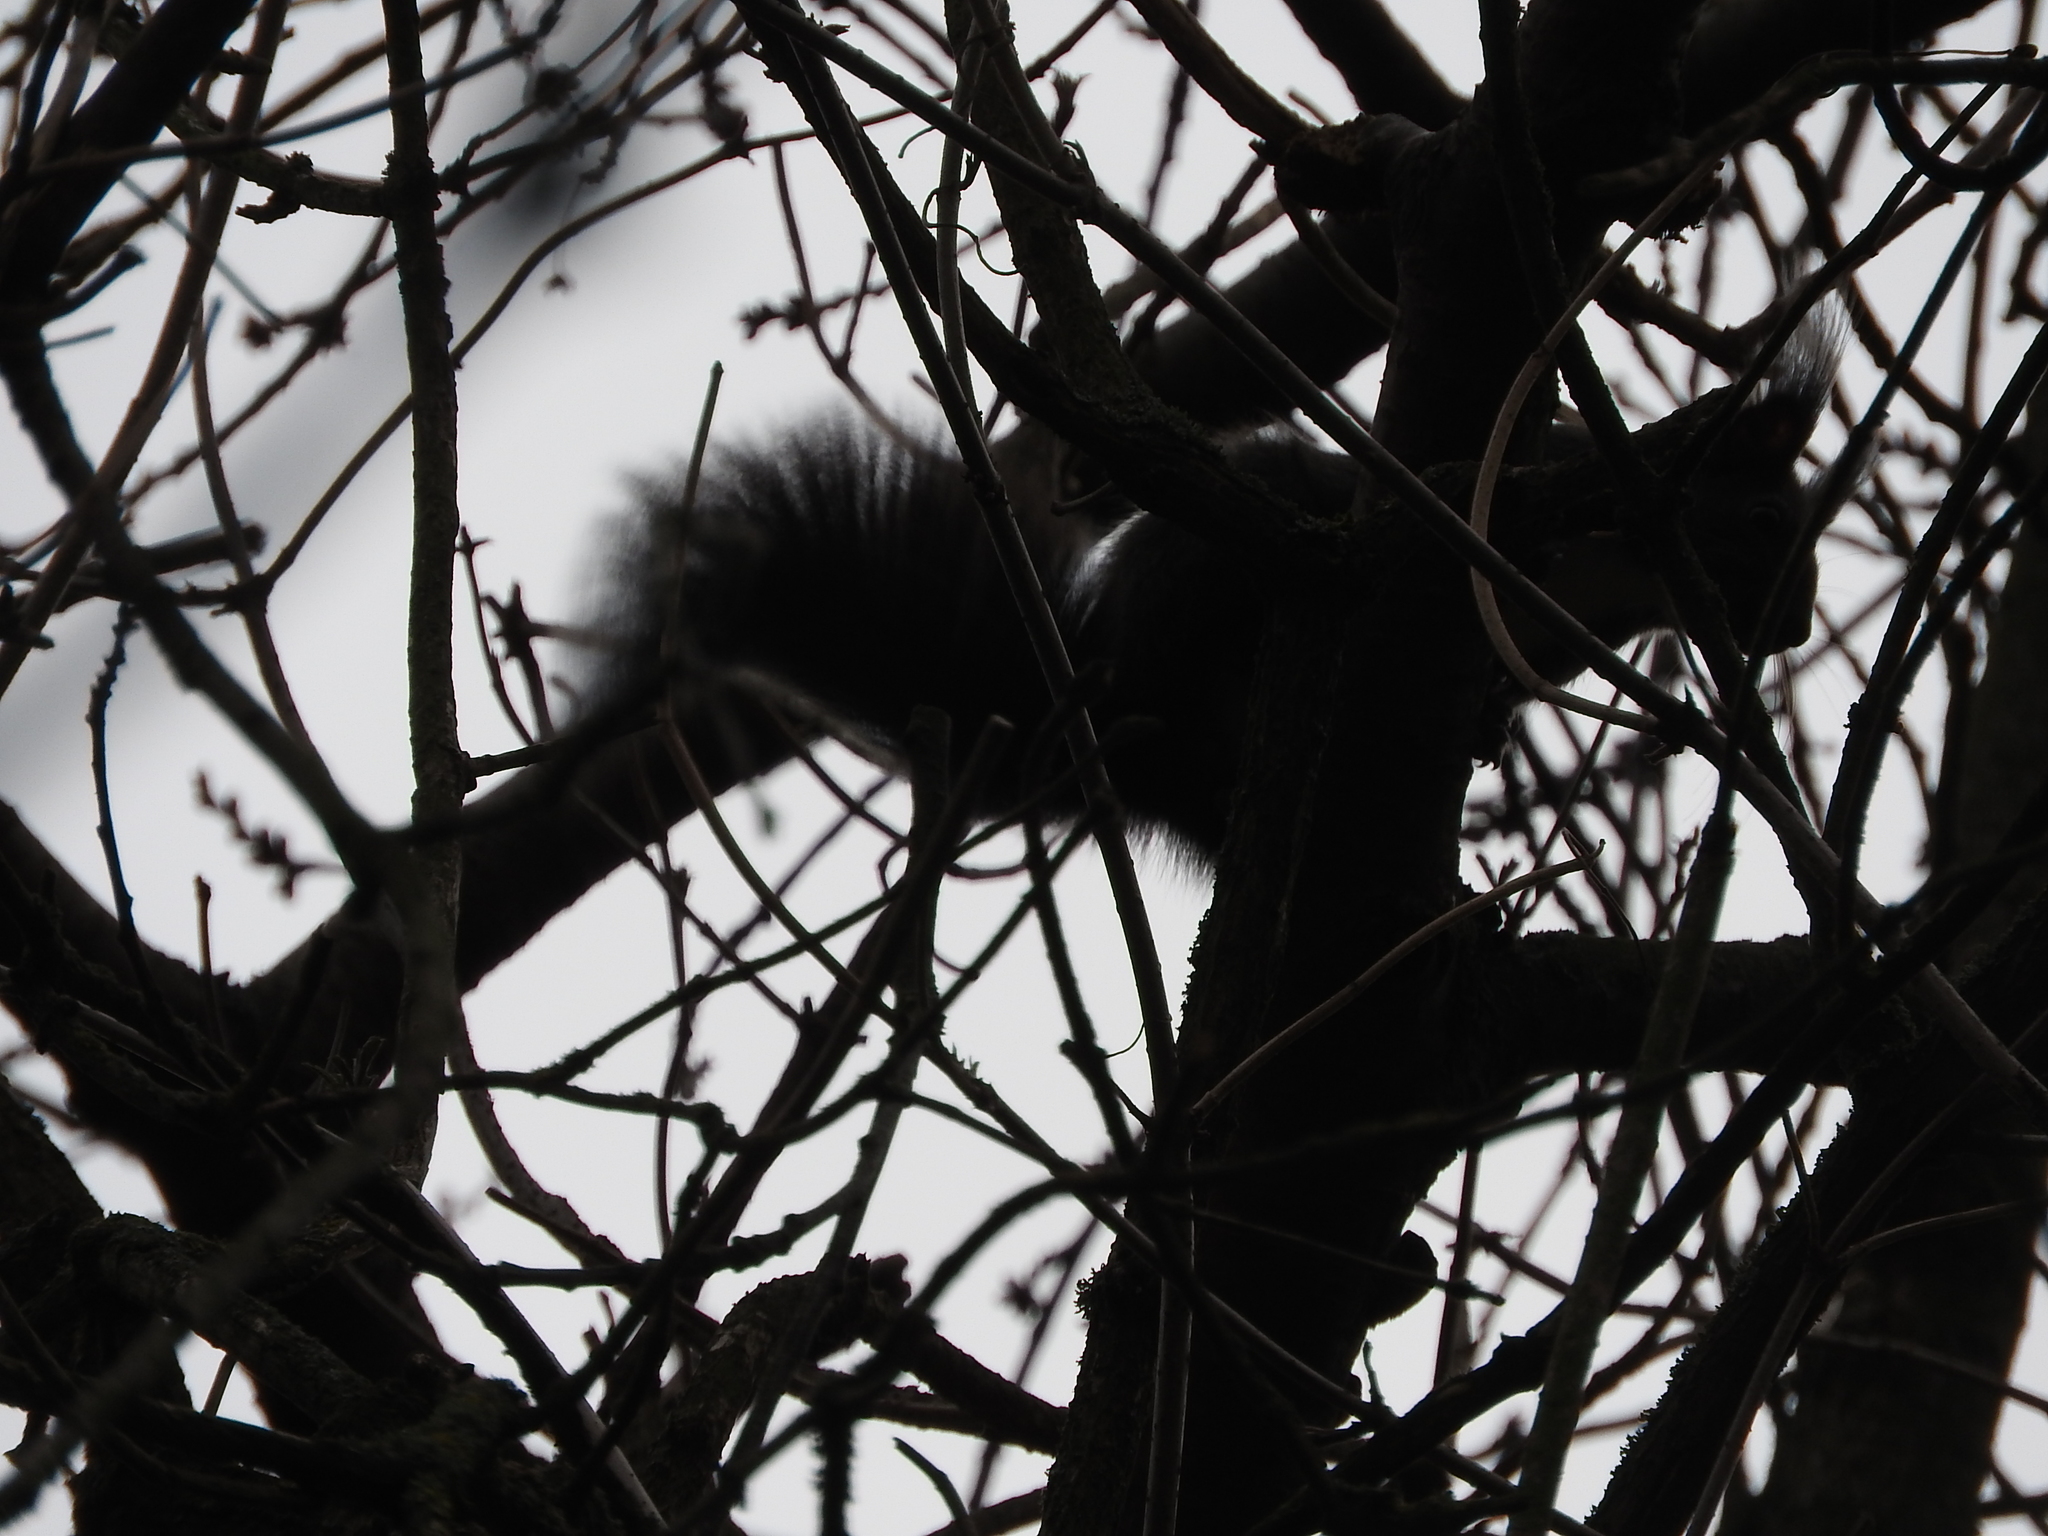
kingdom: Animalia
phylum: Chordata
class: Mammalia
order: Rodentia
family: Sciuridae
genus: Sciurus
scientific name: Sciurus vulgaris
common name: Eurasian red squirrel
